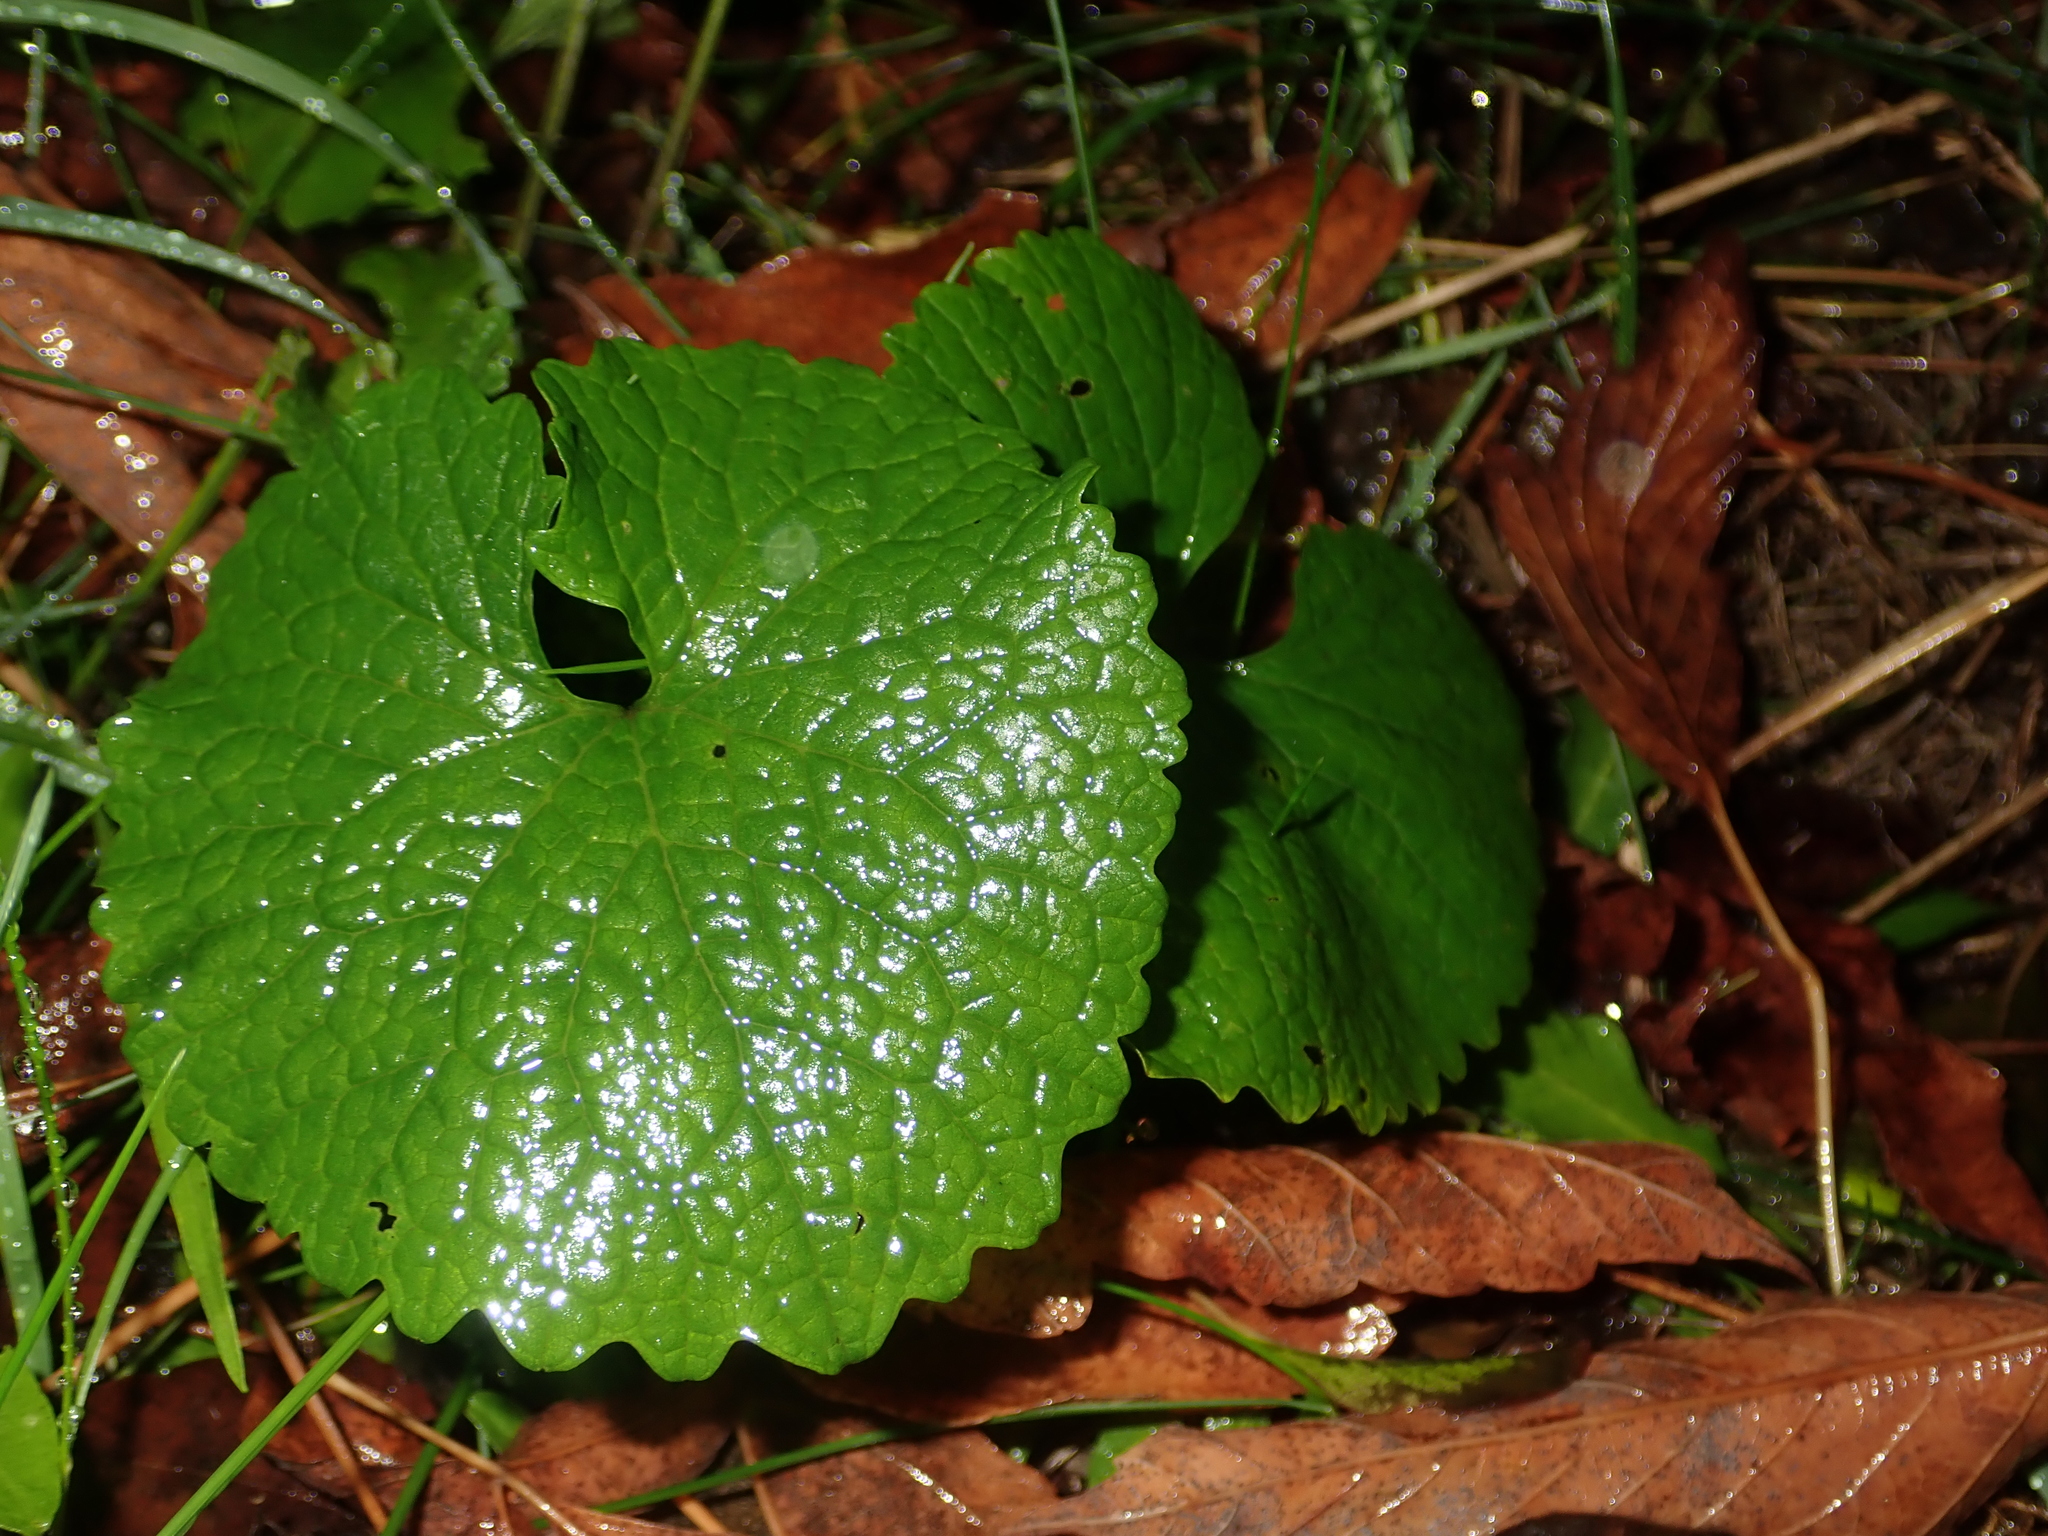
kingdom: Plantae
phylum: Tracheophyta
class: Magnoliopsida
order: Brassicales
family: Brassicaceae
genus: Alliaria
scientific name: Alliaria petiolata
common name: Garlic mustard
